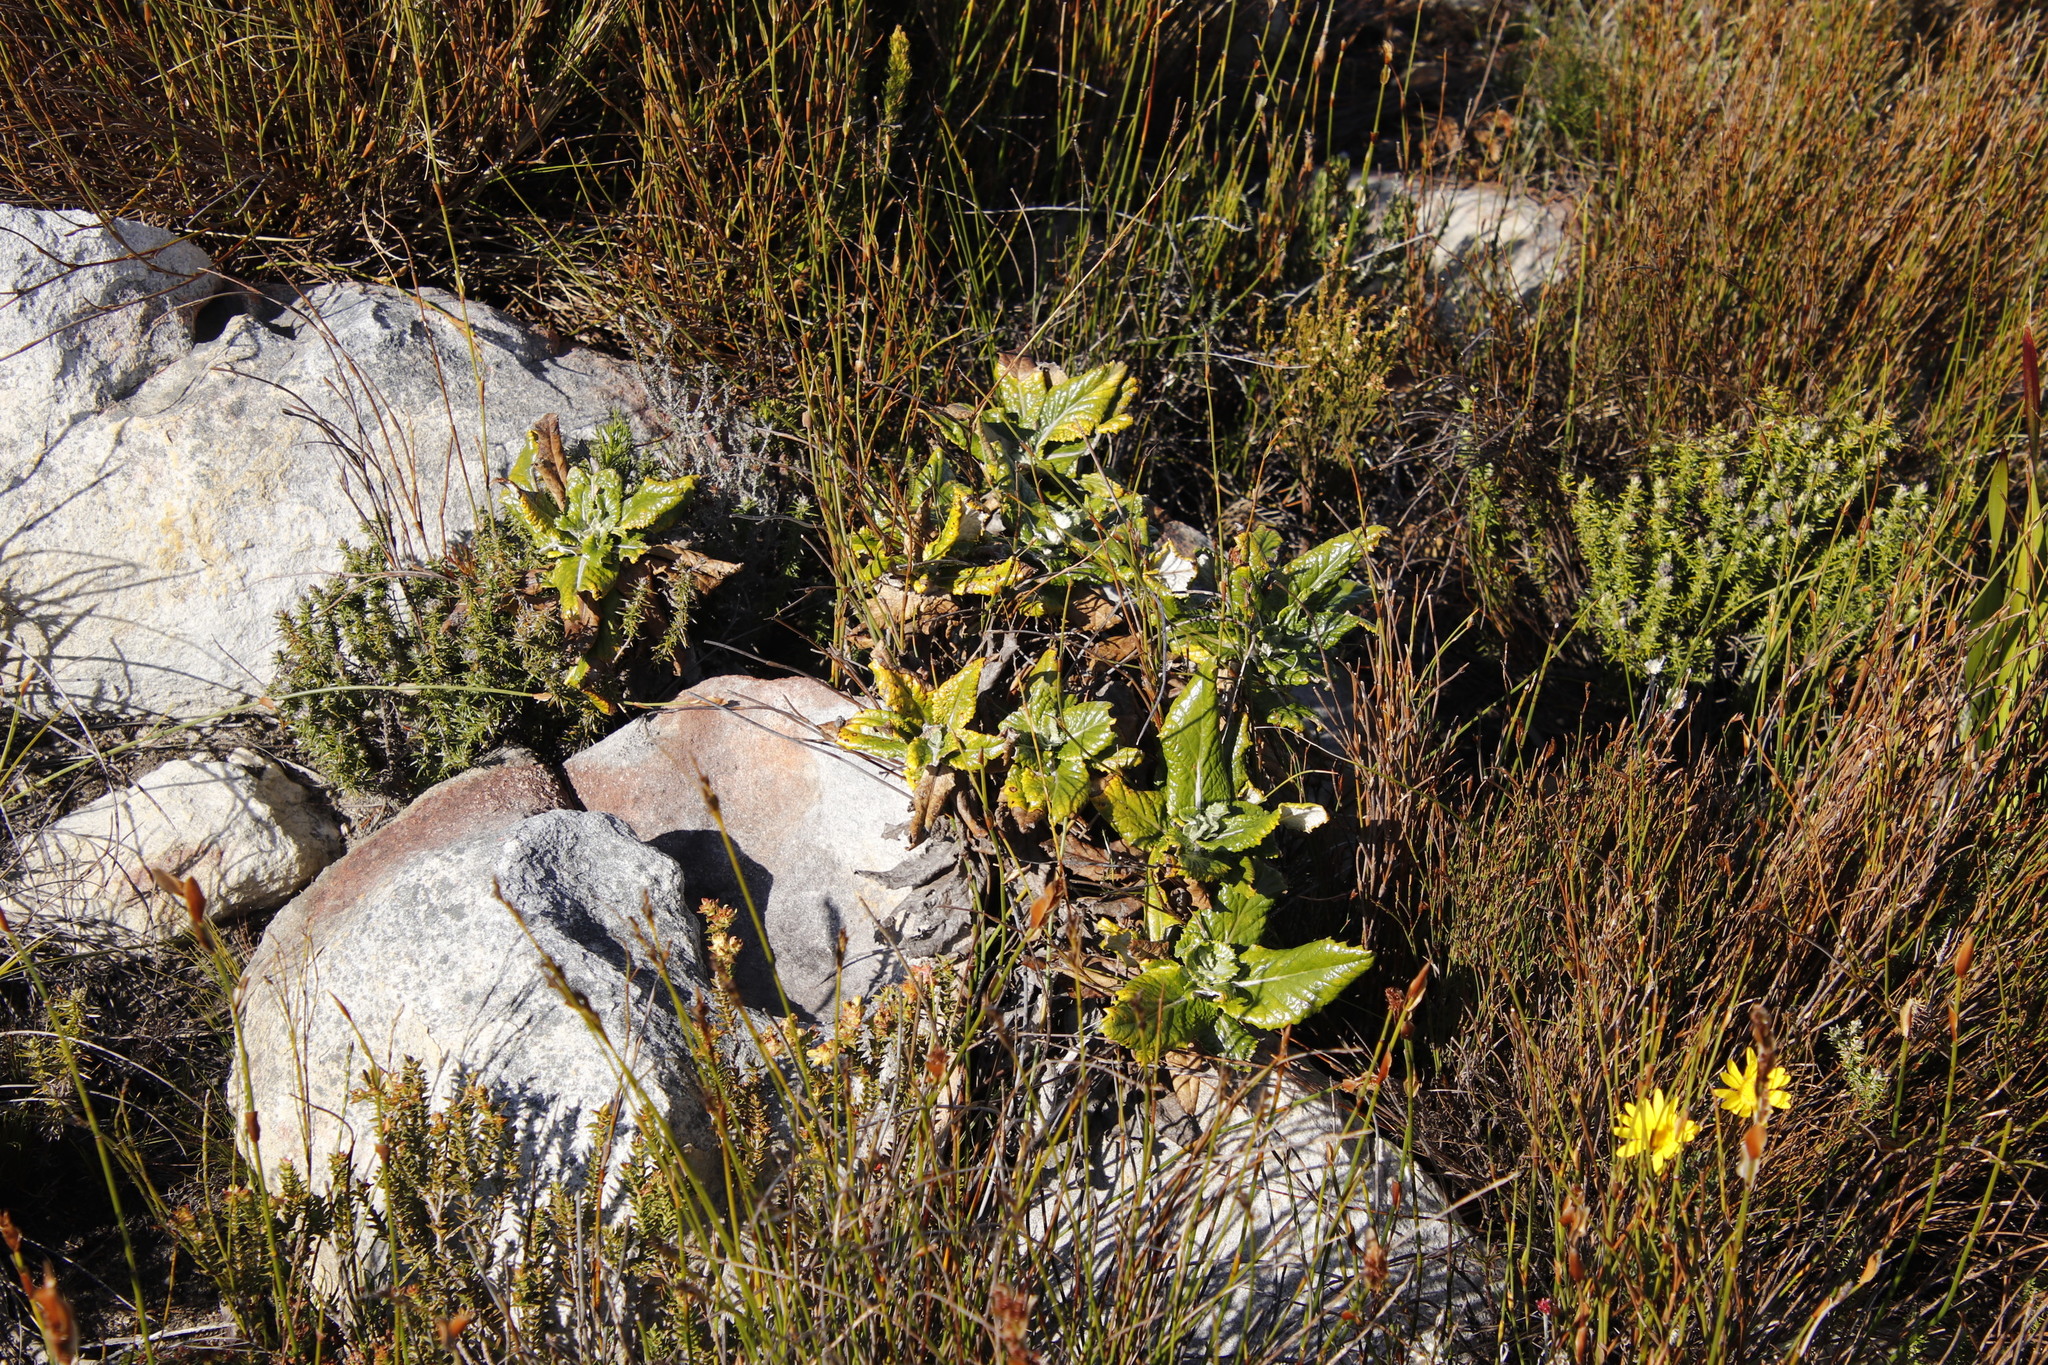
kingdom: Plantae
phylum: Tracheophyta
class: Magnoliopsida
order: Apiales
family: Apiaceae
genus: Hermas
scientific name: Hermas villosa
